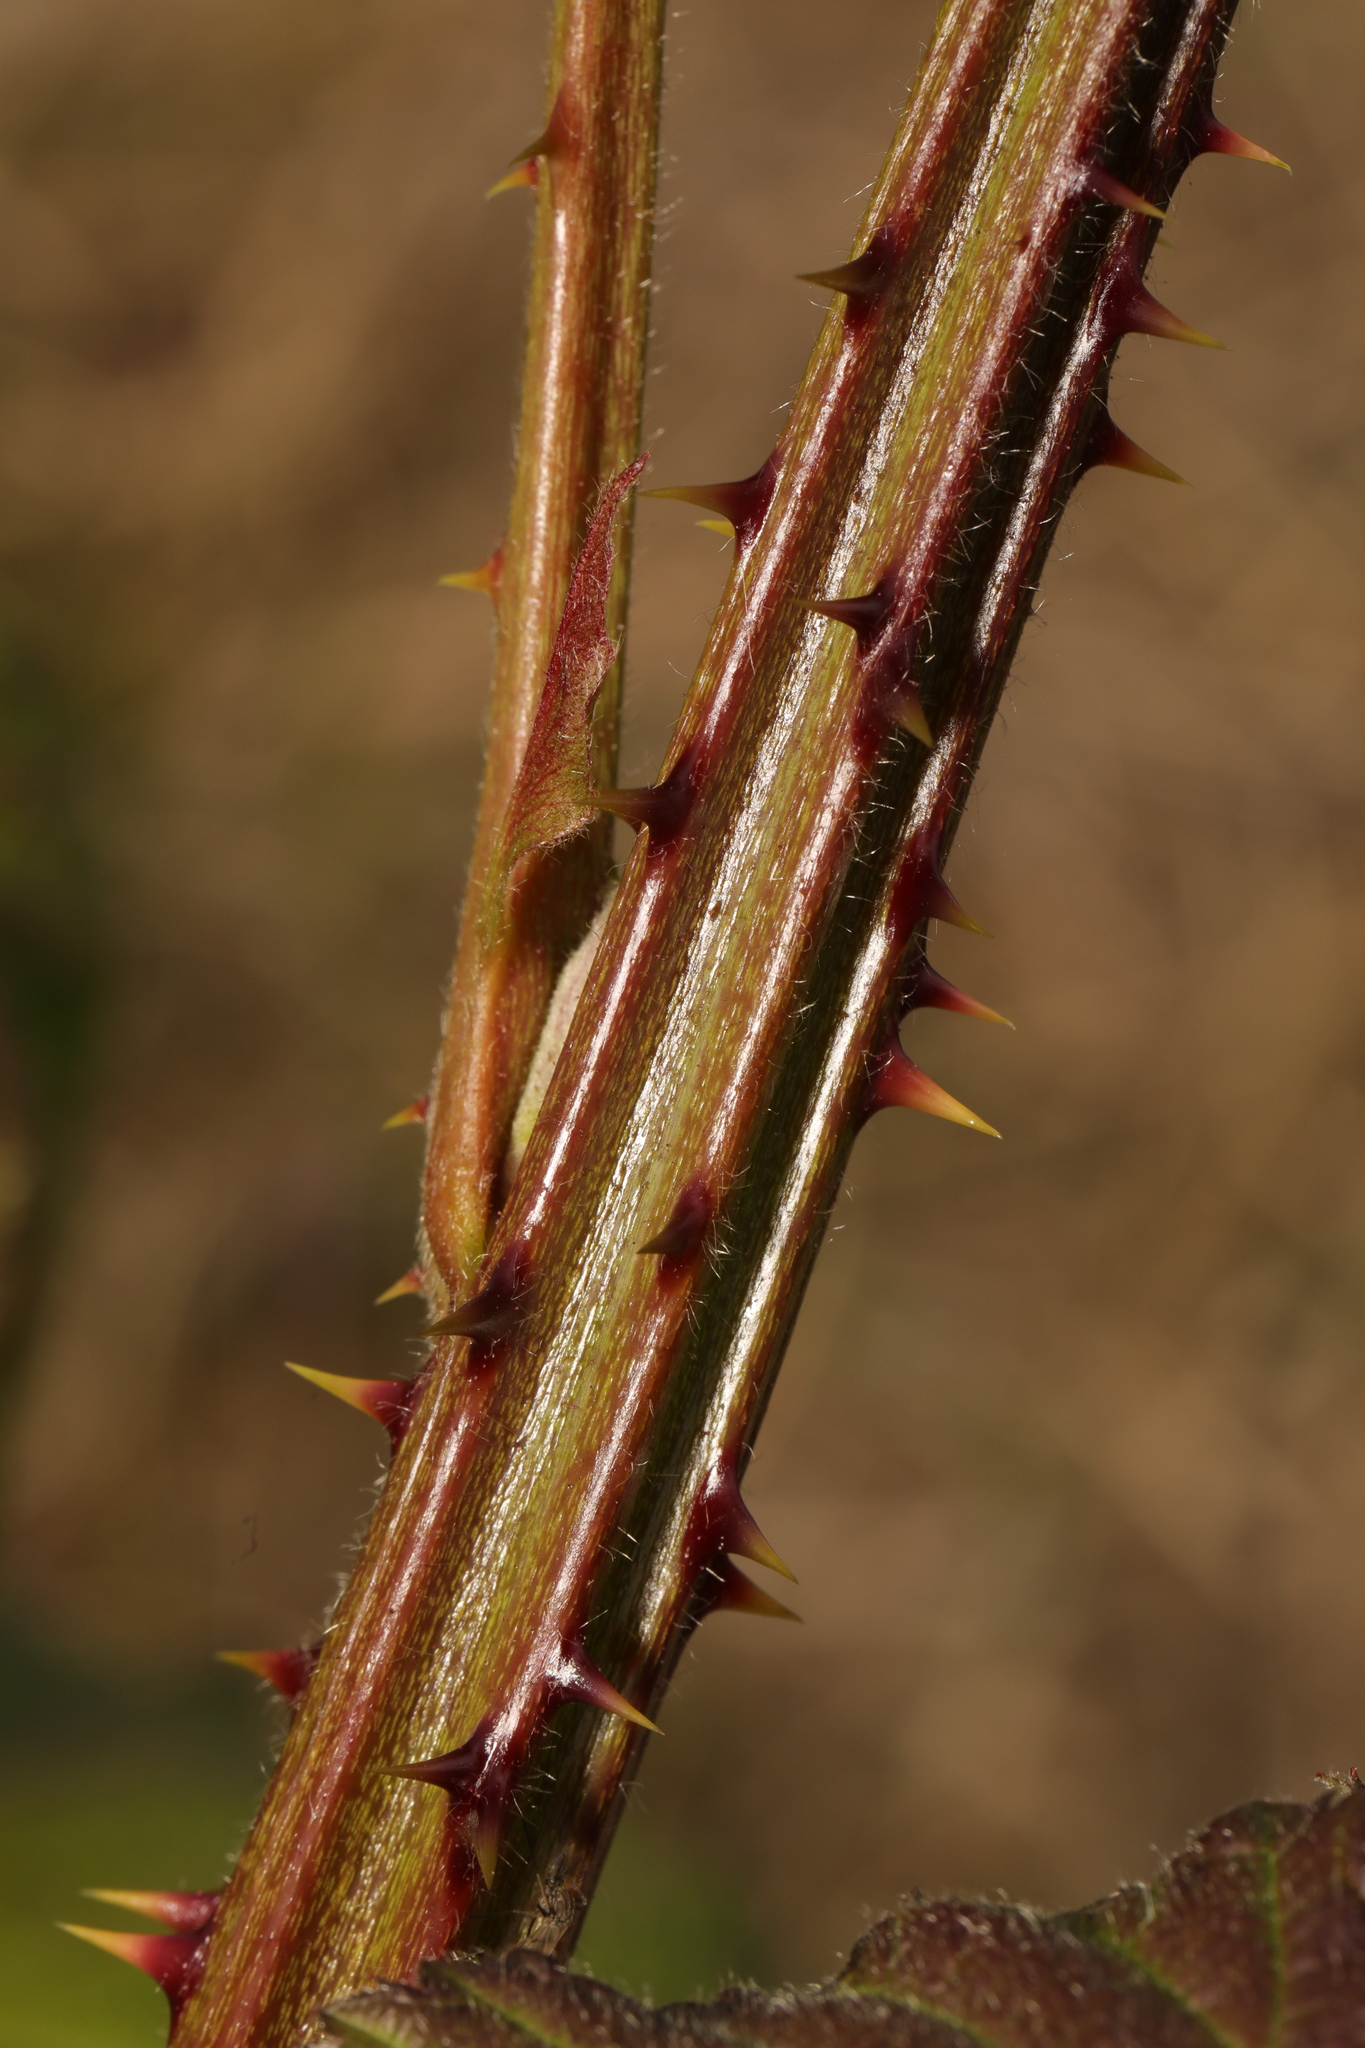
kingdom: Plantae
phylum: Tracheophyta
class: Magnoliopsida
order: Rosales
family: Rosaceae
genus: Rubus
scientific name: Rubus armeniacus
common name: Himalayan blackberry
